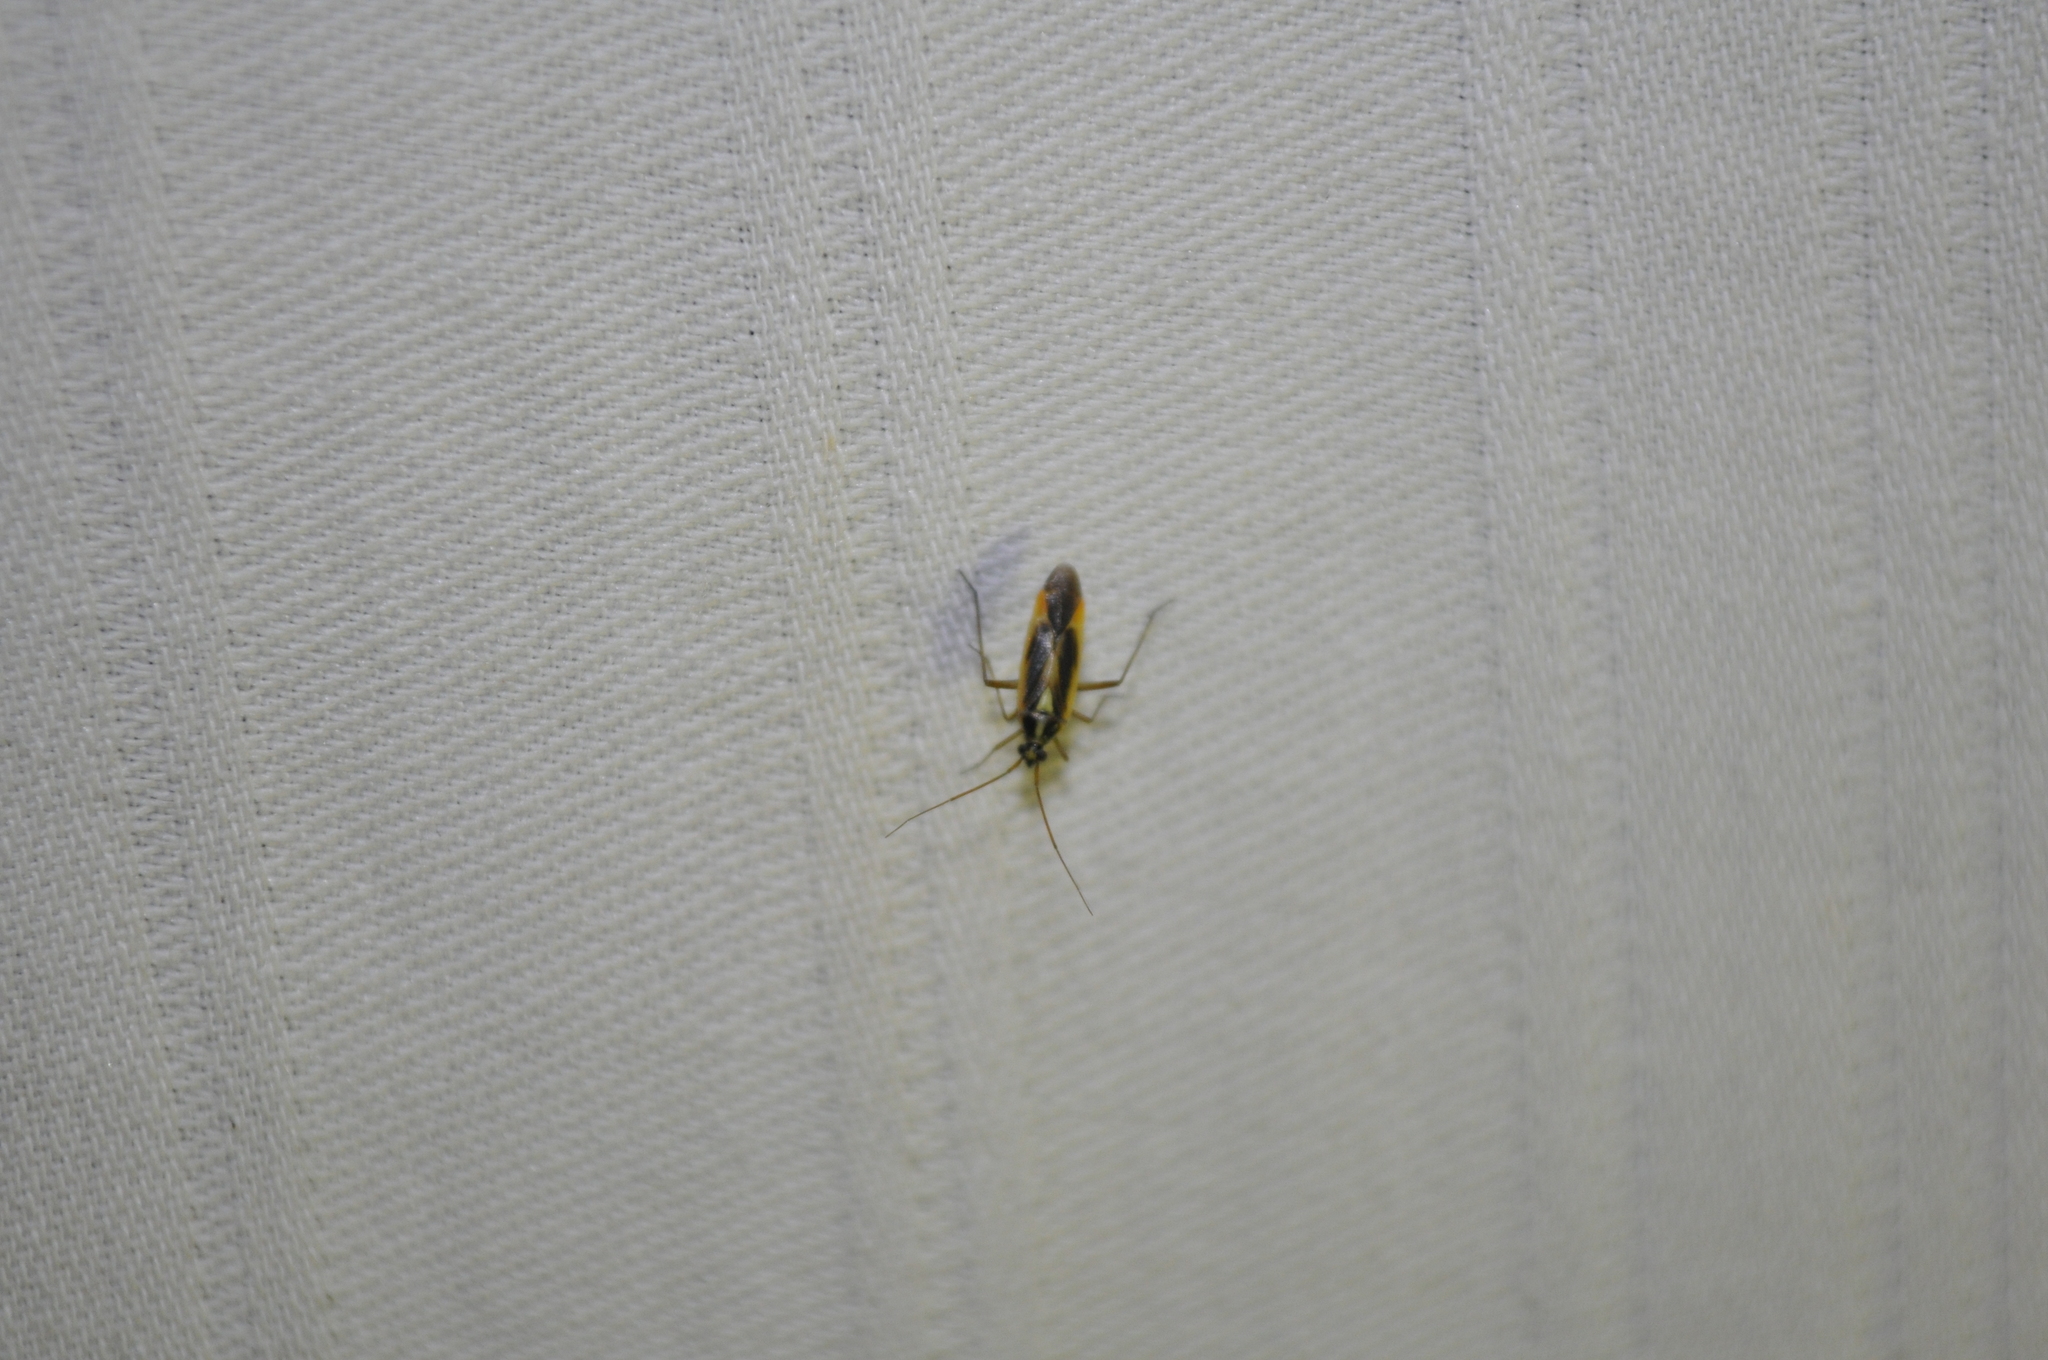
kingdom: Animalia
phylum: Arthropoda
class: Insecta
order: Hemiptera
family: Miridae
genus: Stenotus
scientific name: Stenotus binotatus
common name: Plant bug
